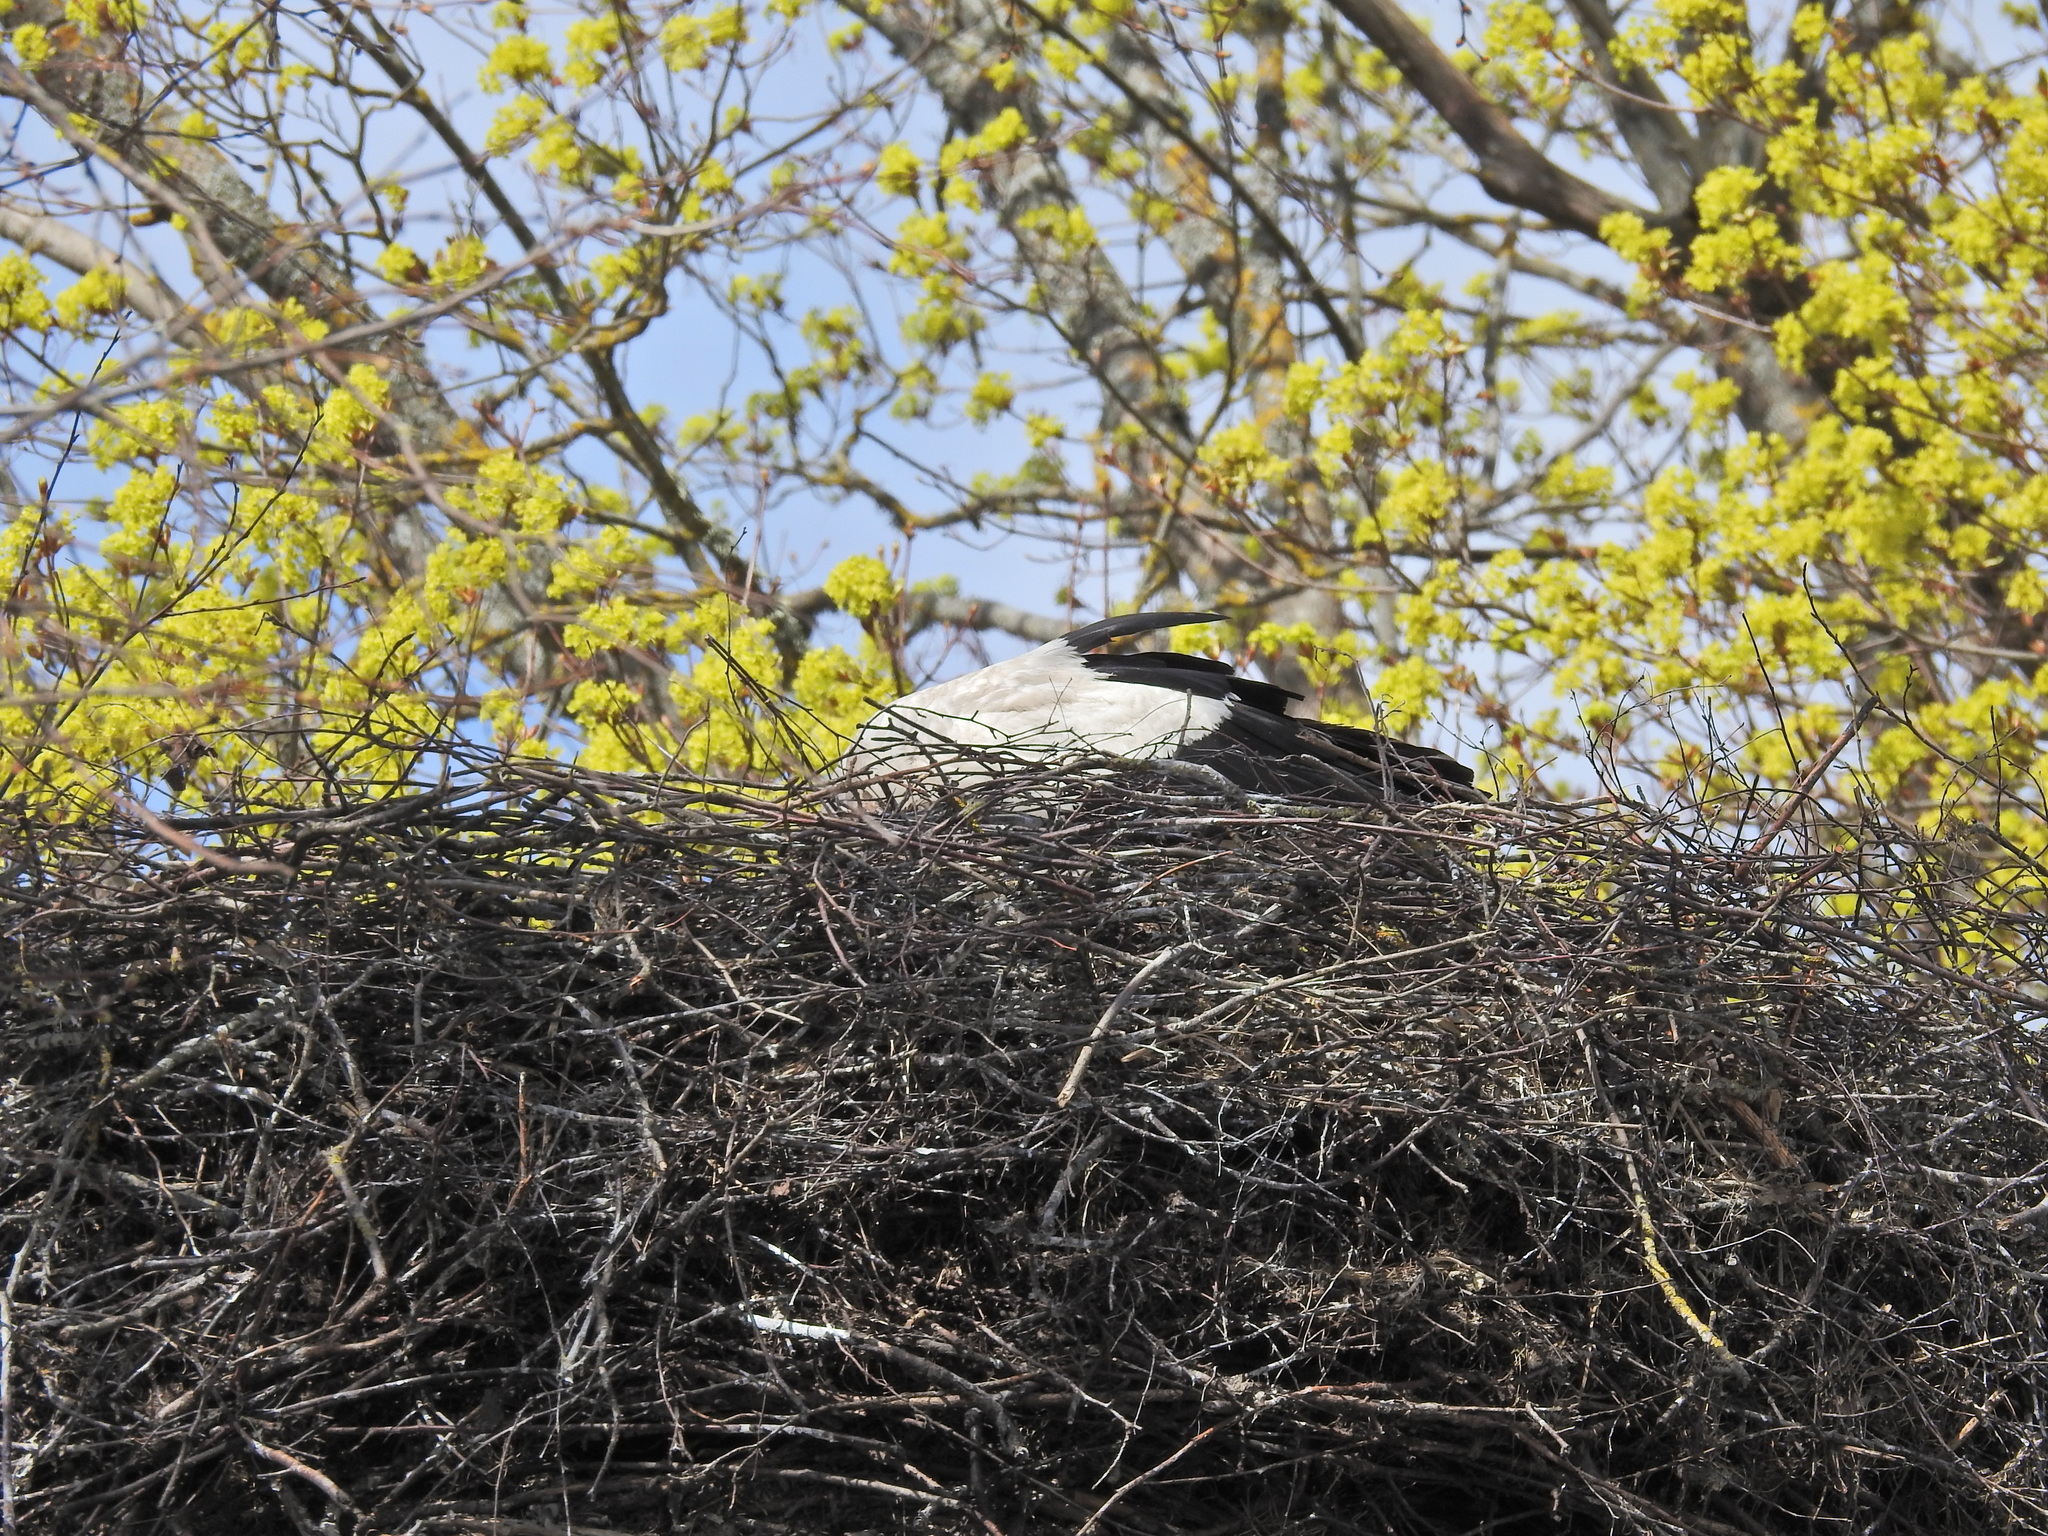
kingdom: Animalia
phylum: Chordata
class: Aves
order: Ciconiiformes
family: Ciconiidae
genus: Ciconia
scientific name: Ciconia ciconia
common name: White stork
